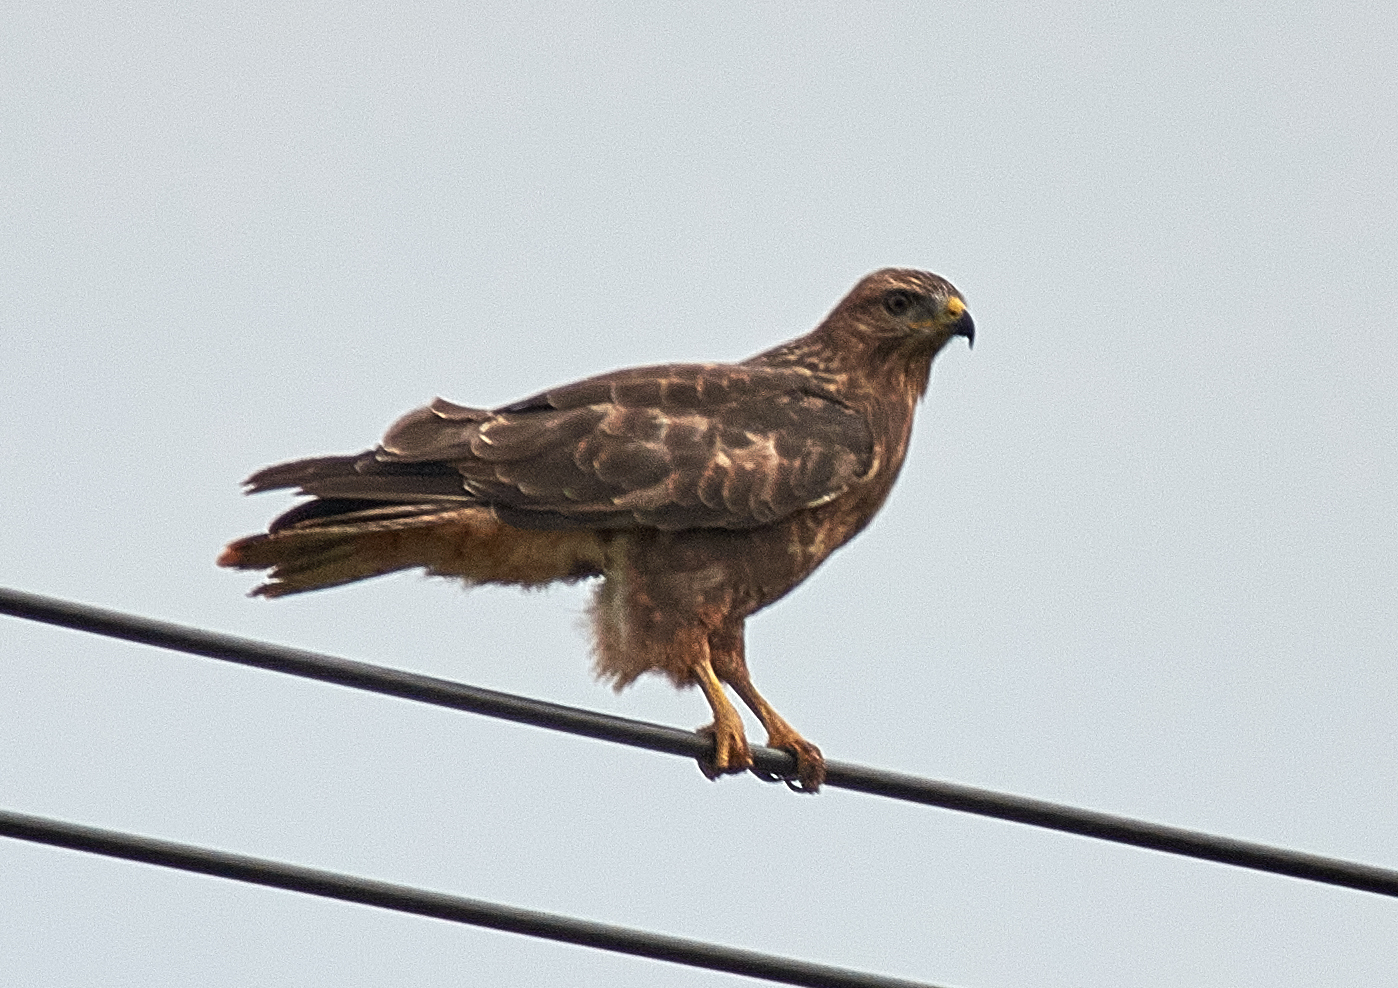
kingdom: Animalia
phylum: Chordata
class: Aves
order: Accipitriformes
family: Accipitridae
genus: Buteo
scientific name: Buteo buteo
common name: Common buzzard
